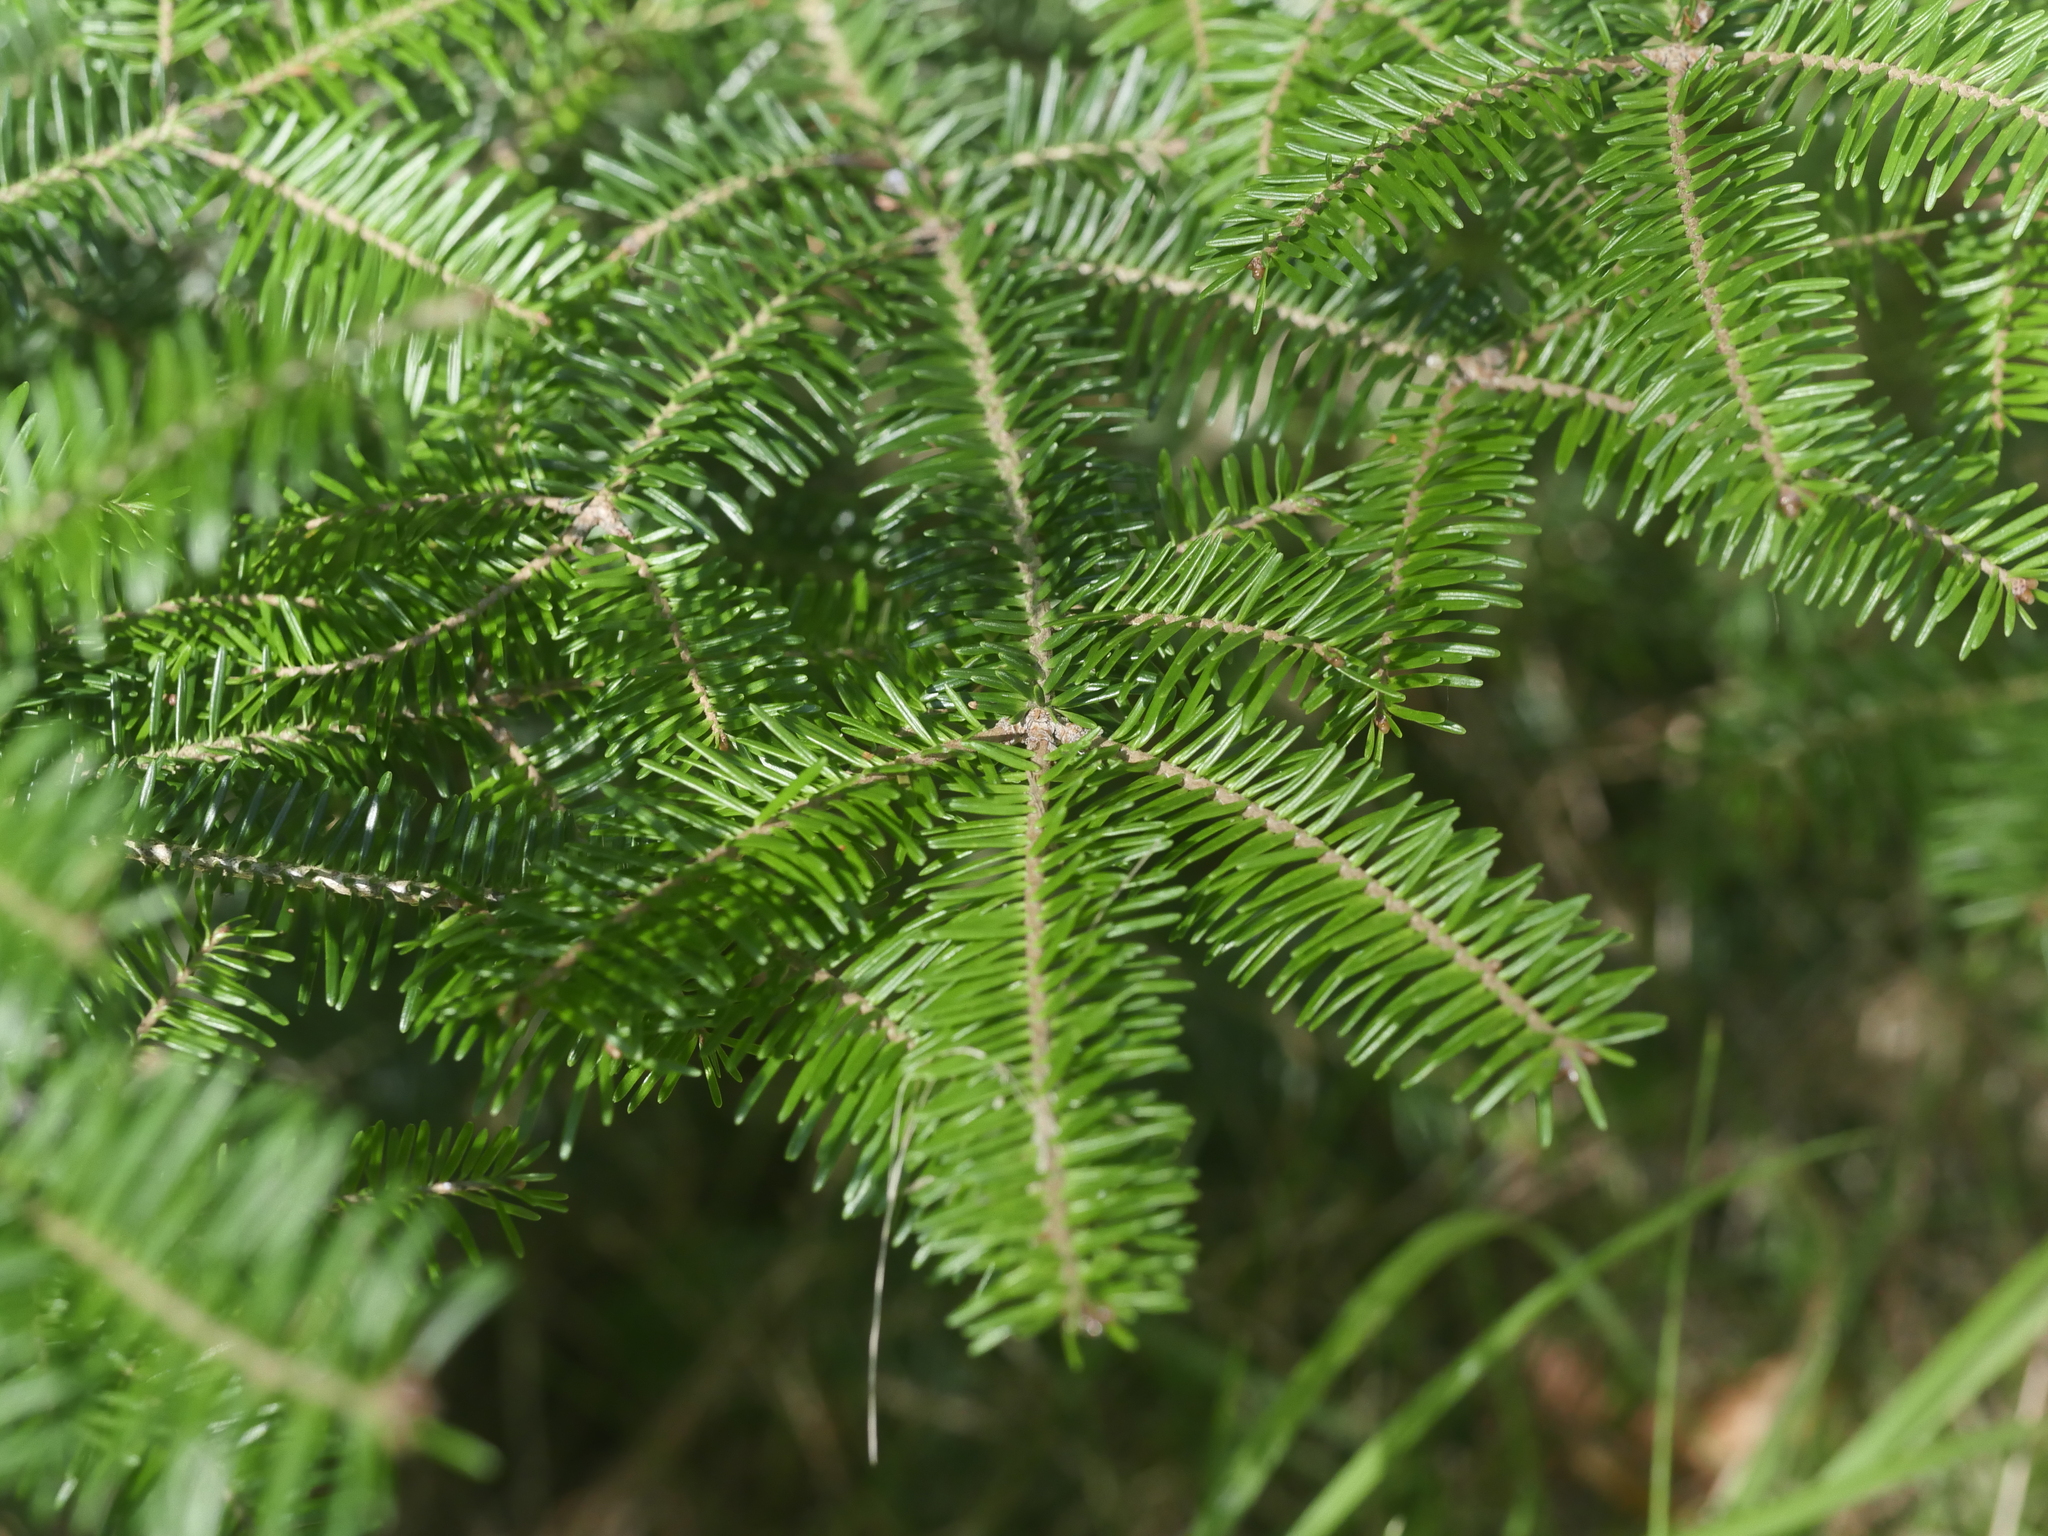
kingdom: Plantae
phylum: Tracheophyta
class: Pinopsida
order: Pinales
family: Pinaceae
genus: Abies
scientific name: Abies balsamea
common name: Balsam fir
